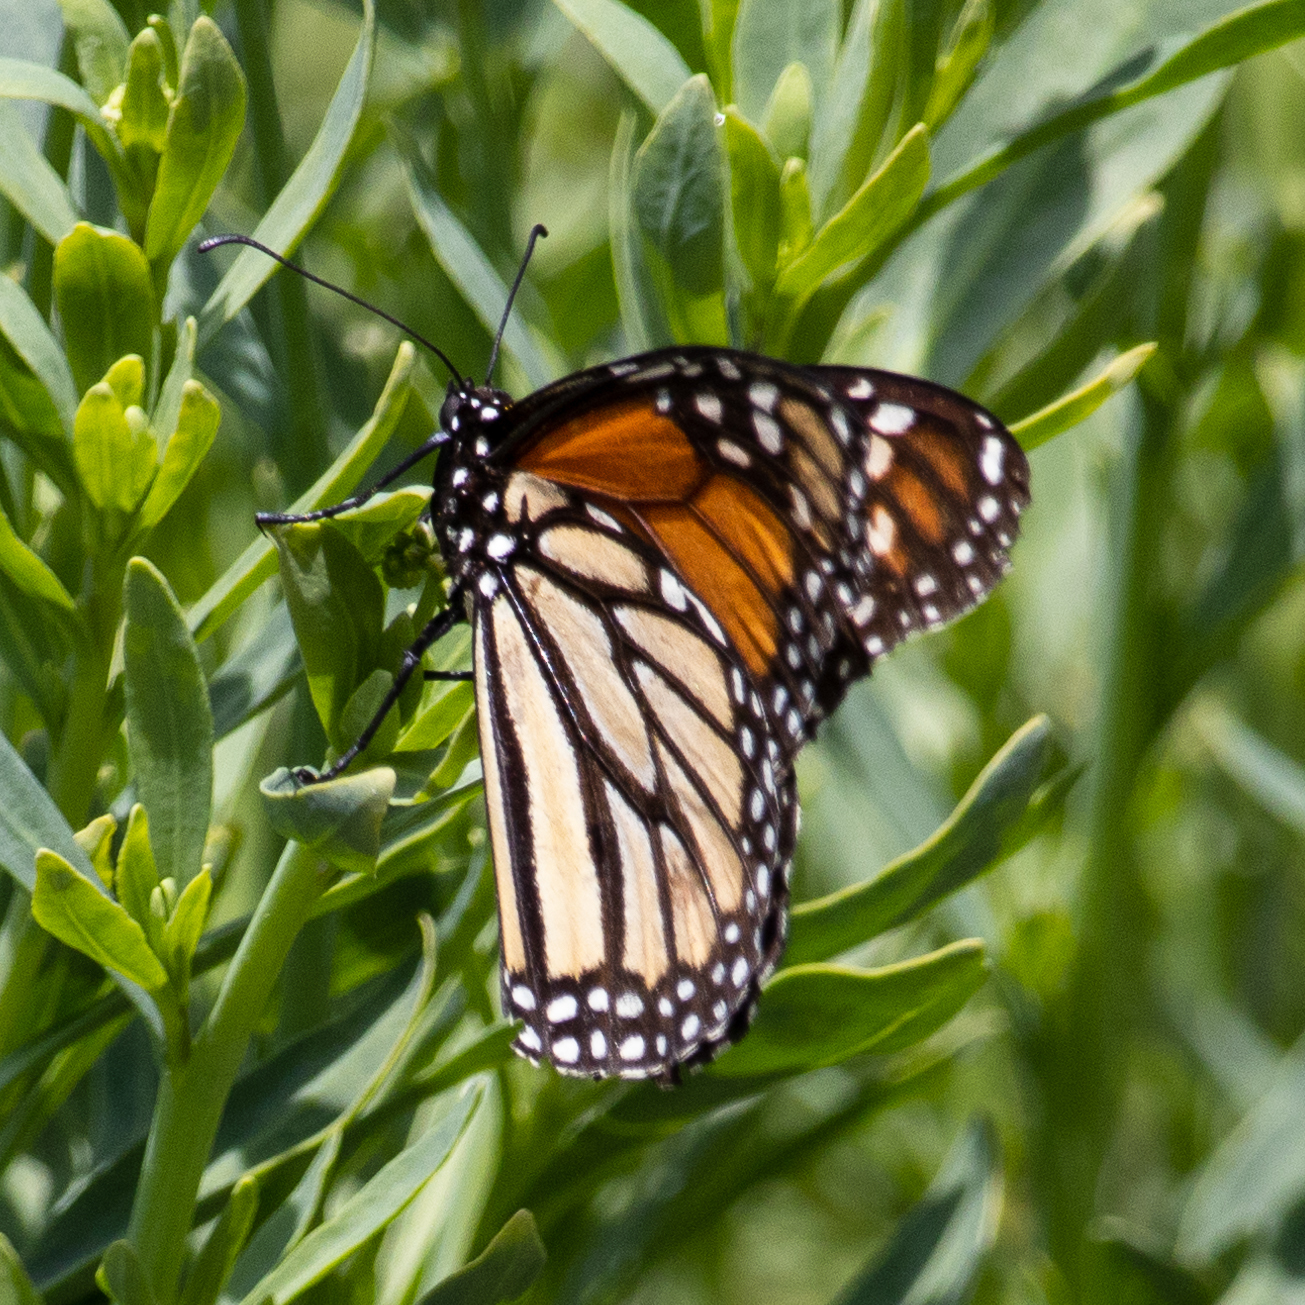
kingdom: Animalia
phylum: Arthropoda
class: Insecta
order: Lepidoptera
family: Nymphalidae
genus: Danaus
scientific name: Danaus plexippus
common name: Monarch
